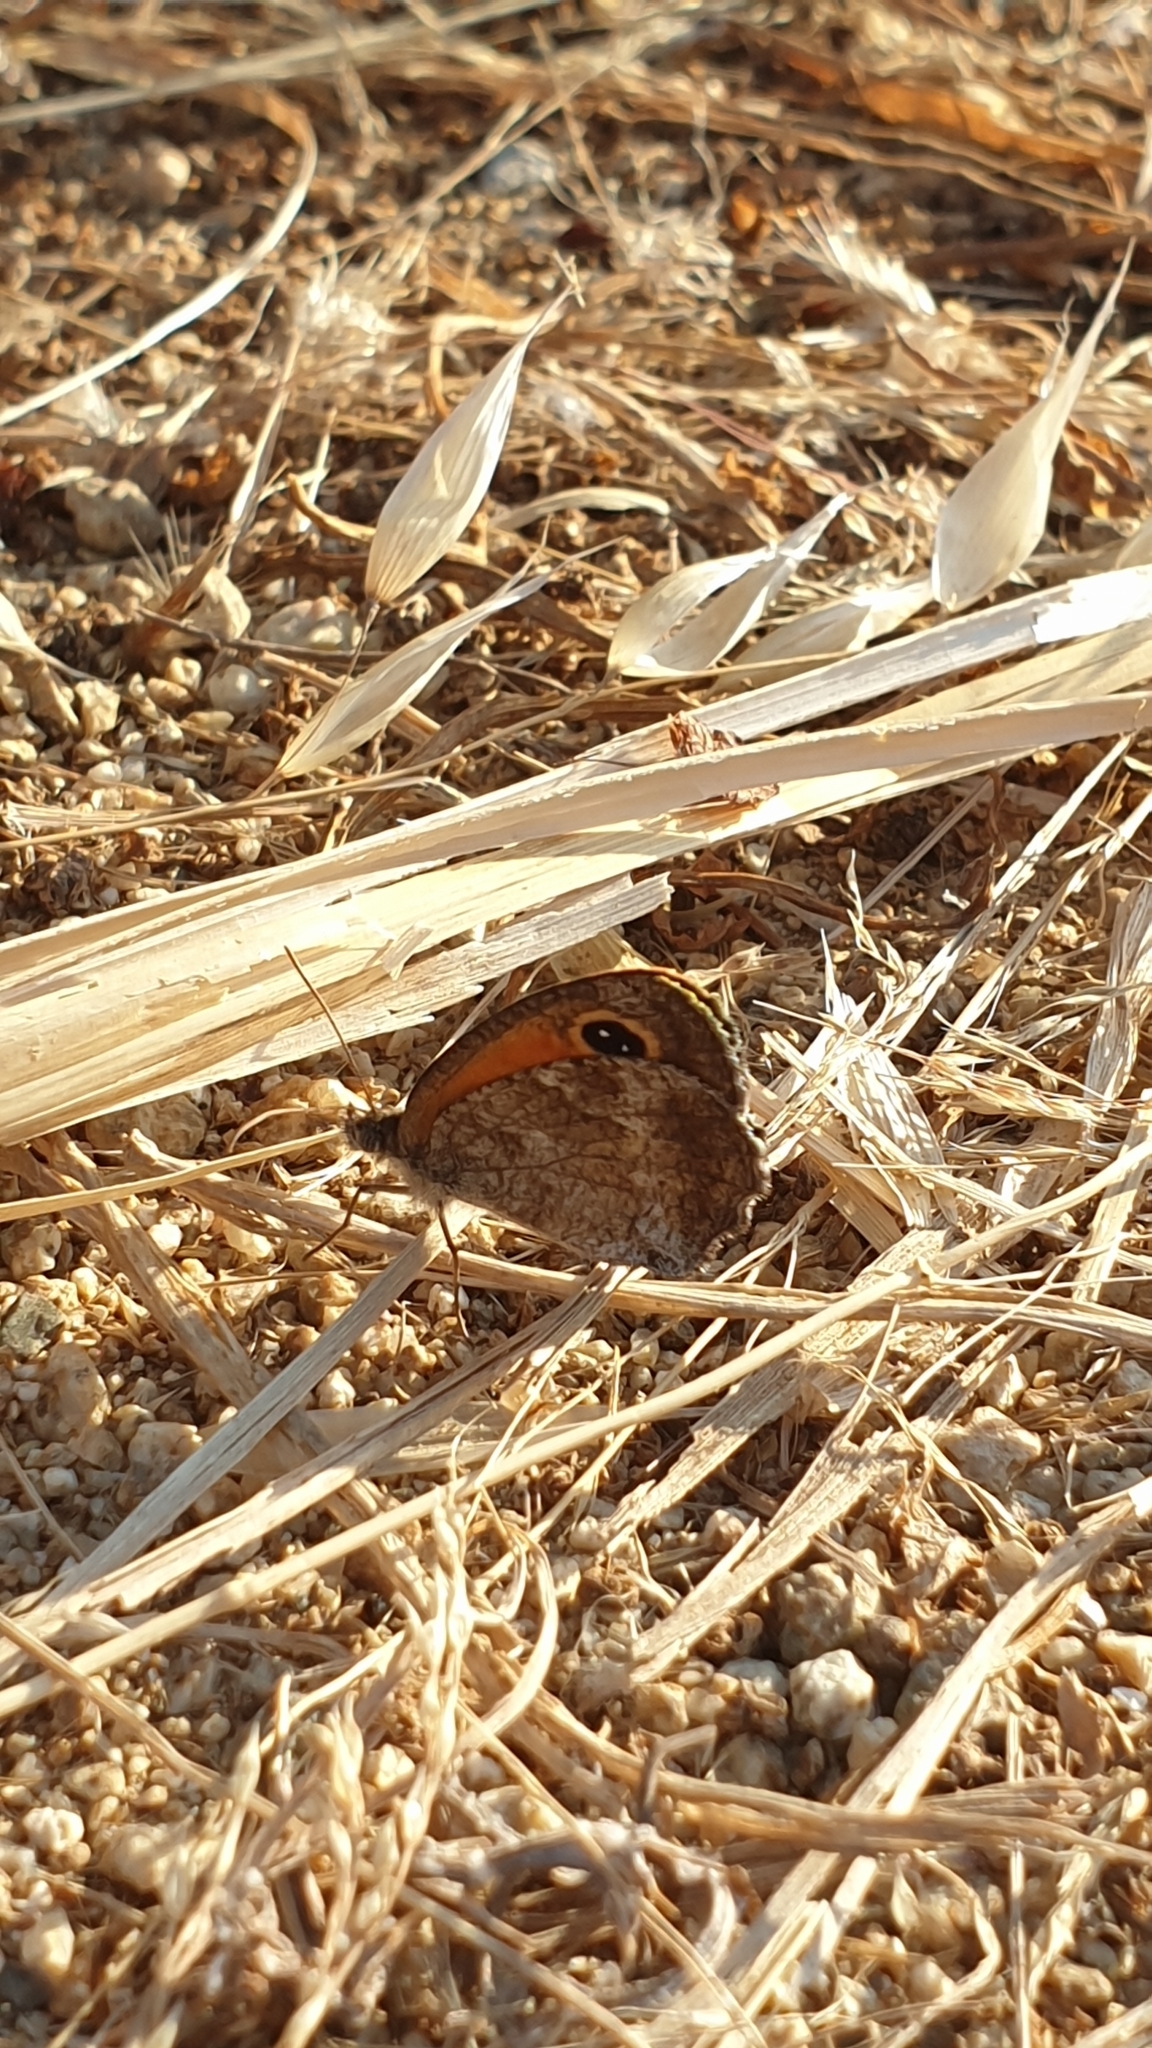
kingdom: Animalia
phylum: Arthropoda
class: Insecta
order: Lepidoptera
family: Nymphalidae
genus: Pyronia
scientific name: Pyronia cecilia
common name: Southern gatekeeper
